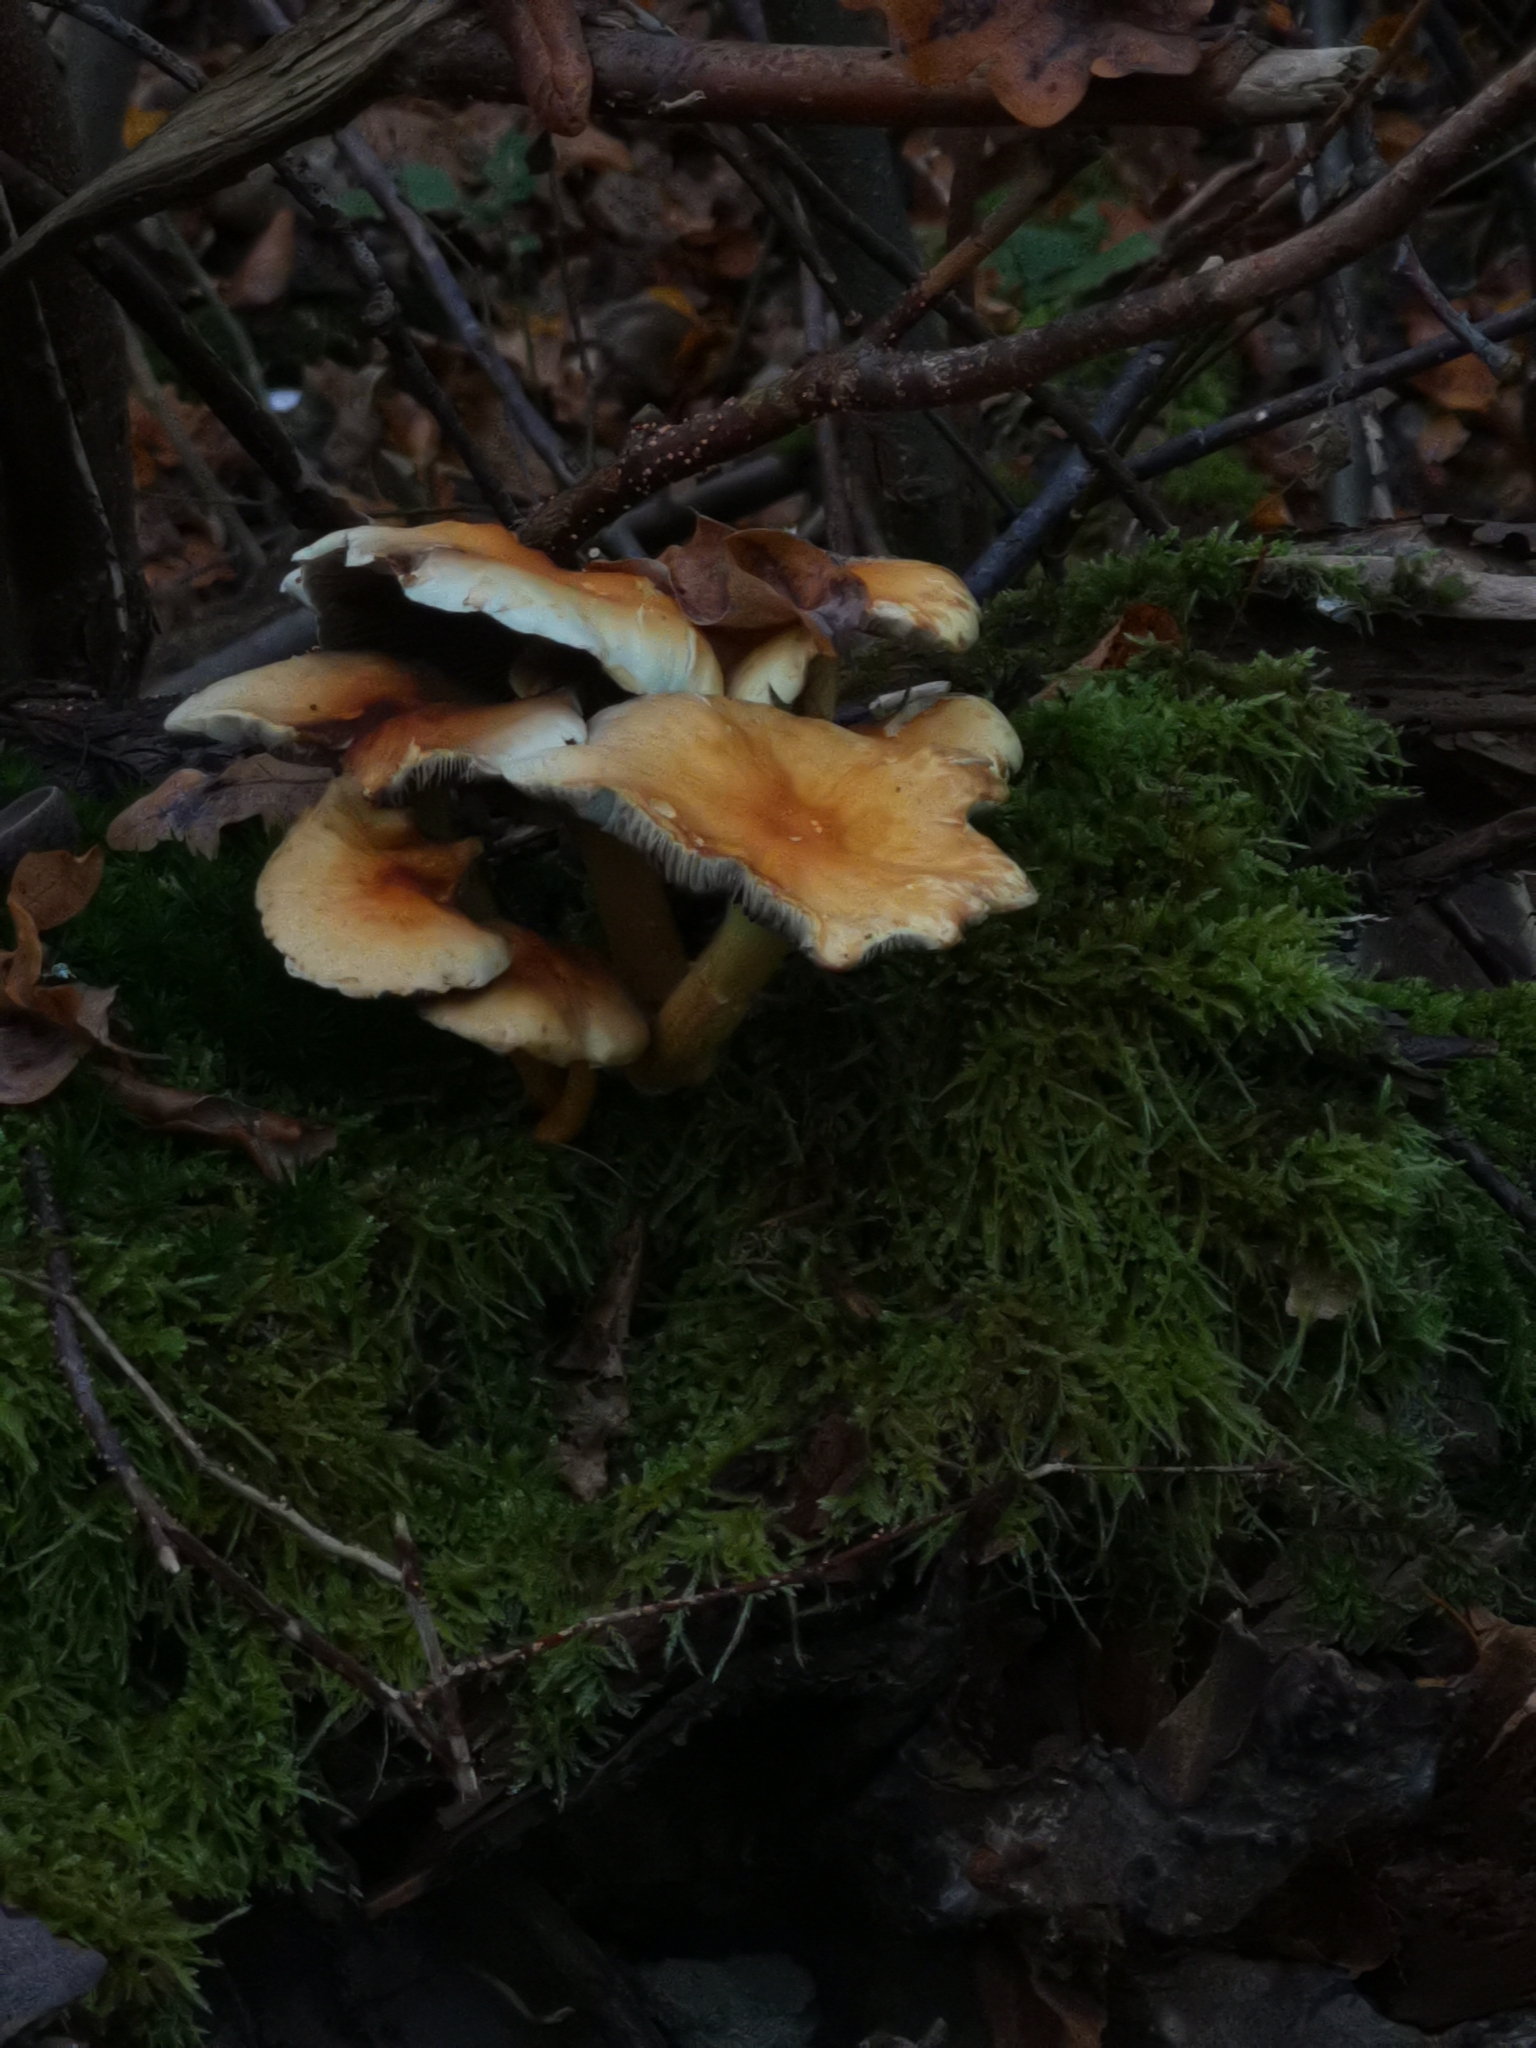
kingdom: Fungi
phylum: Basidiomycota
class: Agaricomycetes
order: Agaricales
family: Strophariaceae
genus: Hypholoma
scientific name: Hypholoma fasciculare
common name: Sulphur tuft
